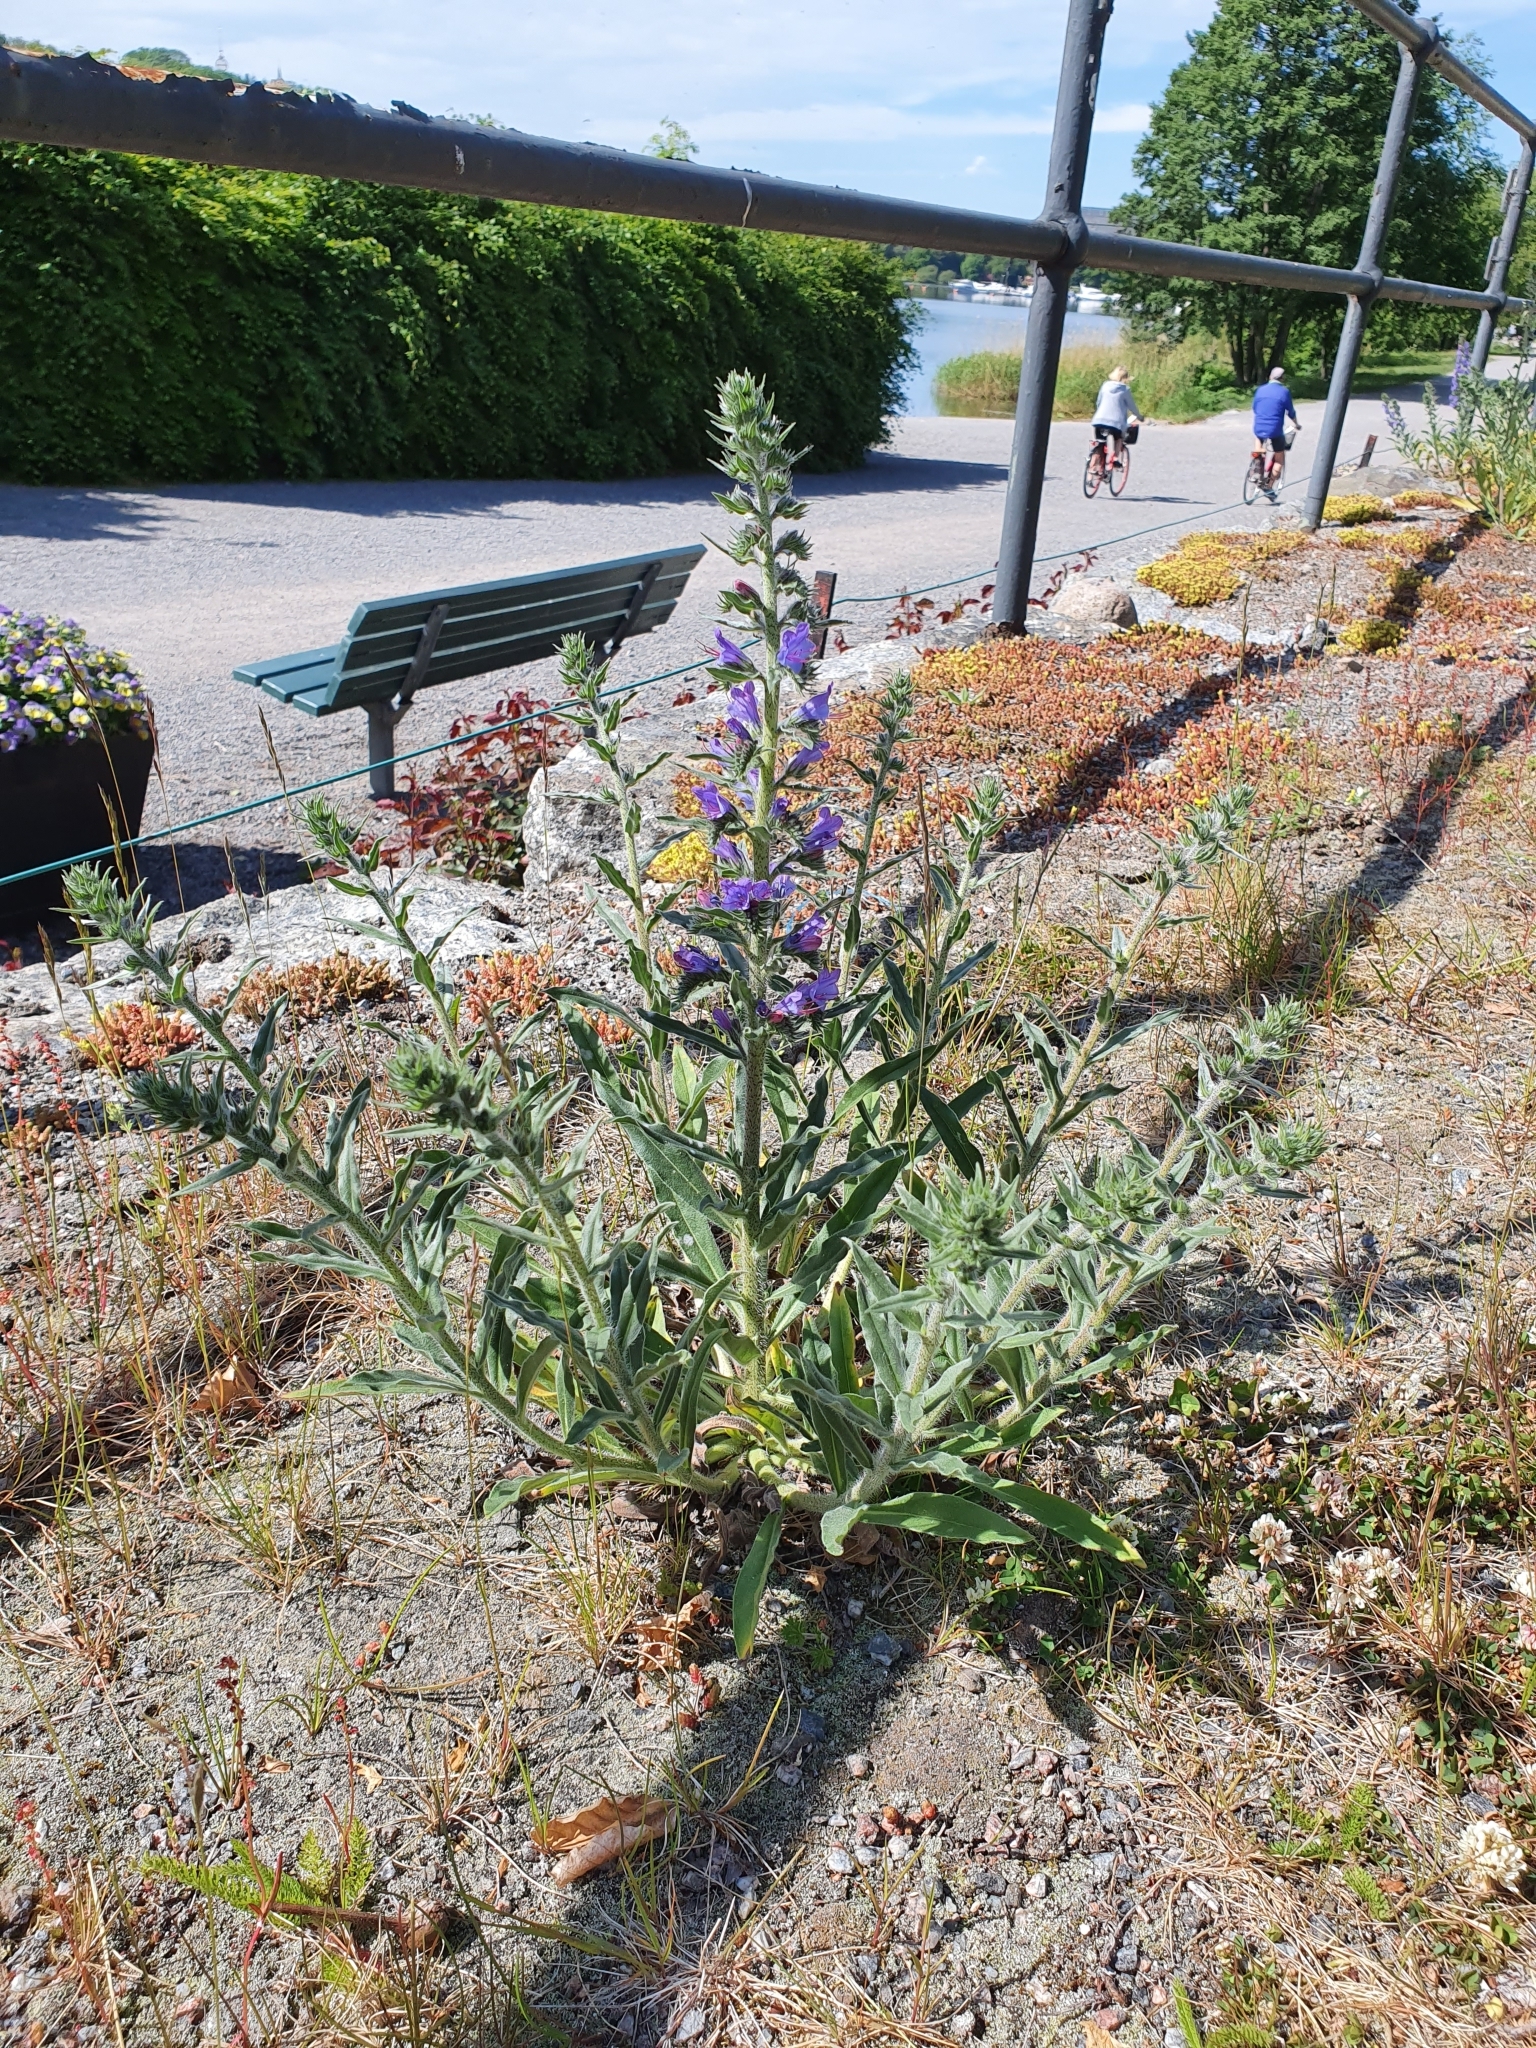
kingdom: Plantae
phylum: Tracheophyta
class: Magnoliopsida
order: Boraginales
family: Boraginaceae
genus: Echium
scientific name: Echium vulgare
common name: Common viper's bugloss
